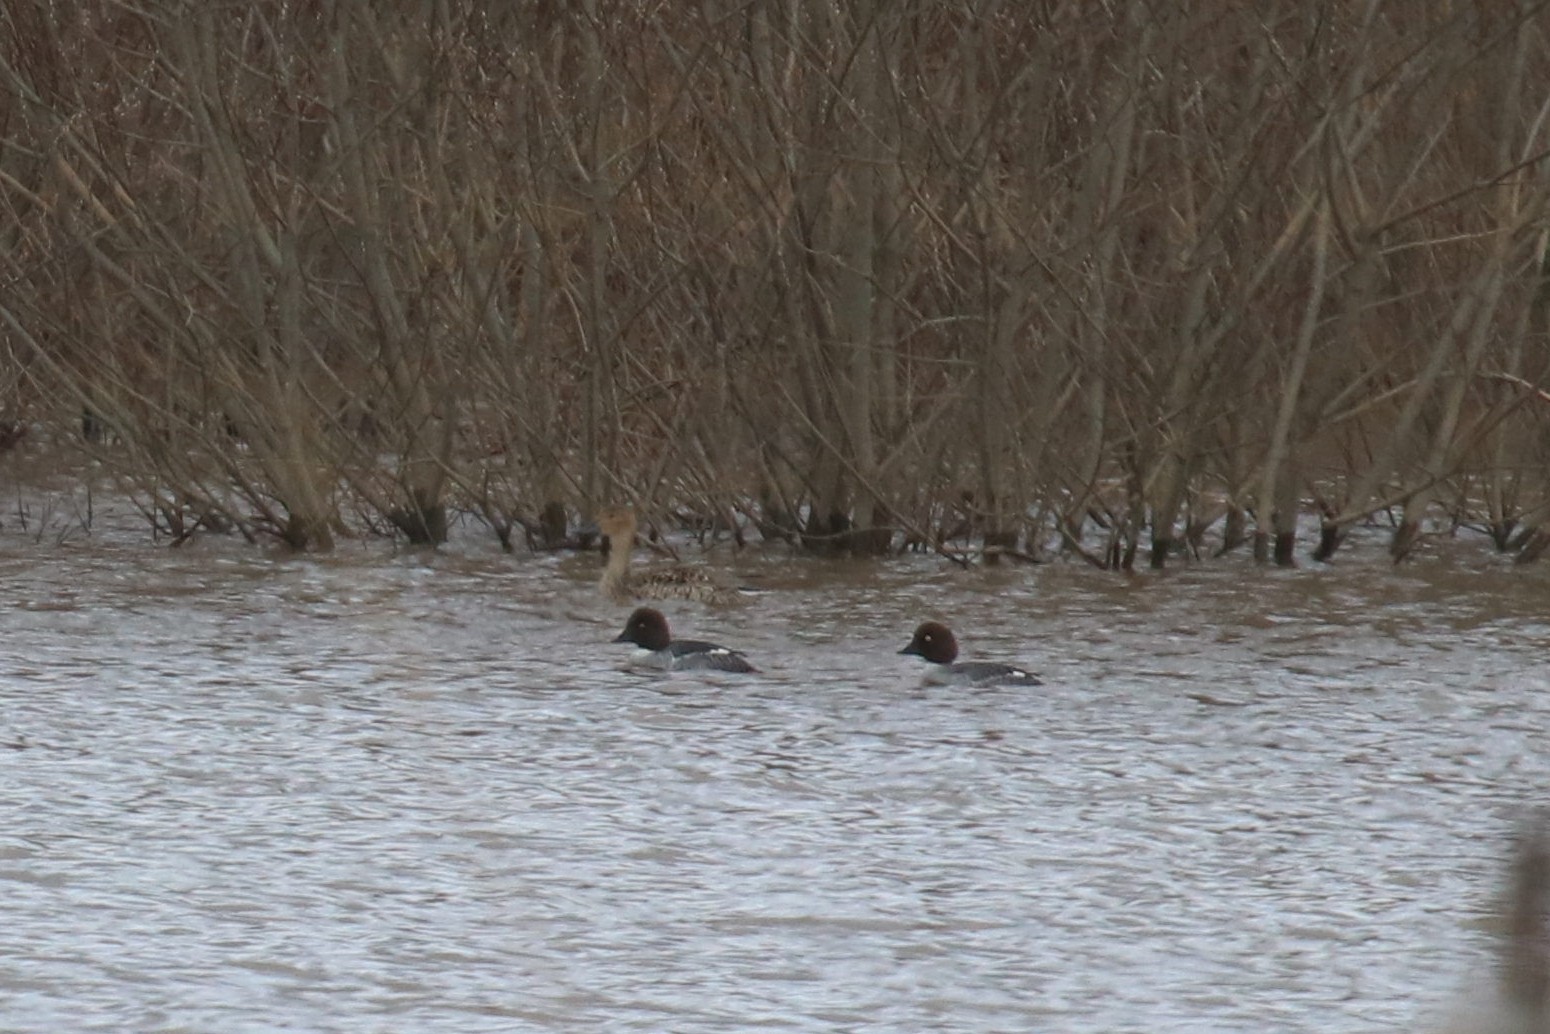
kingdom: Animalia
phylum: Chordata
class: Aves
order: Anseriformes
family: Anatidae
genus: Bucephala
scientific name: Bucephala clangula
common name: Common goldeneye
